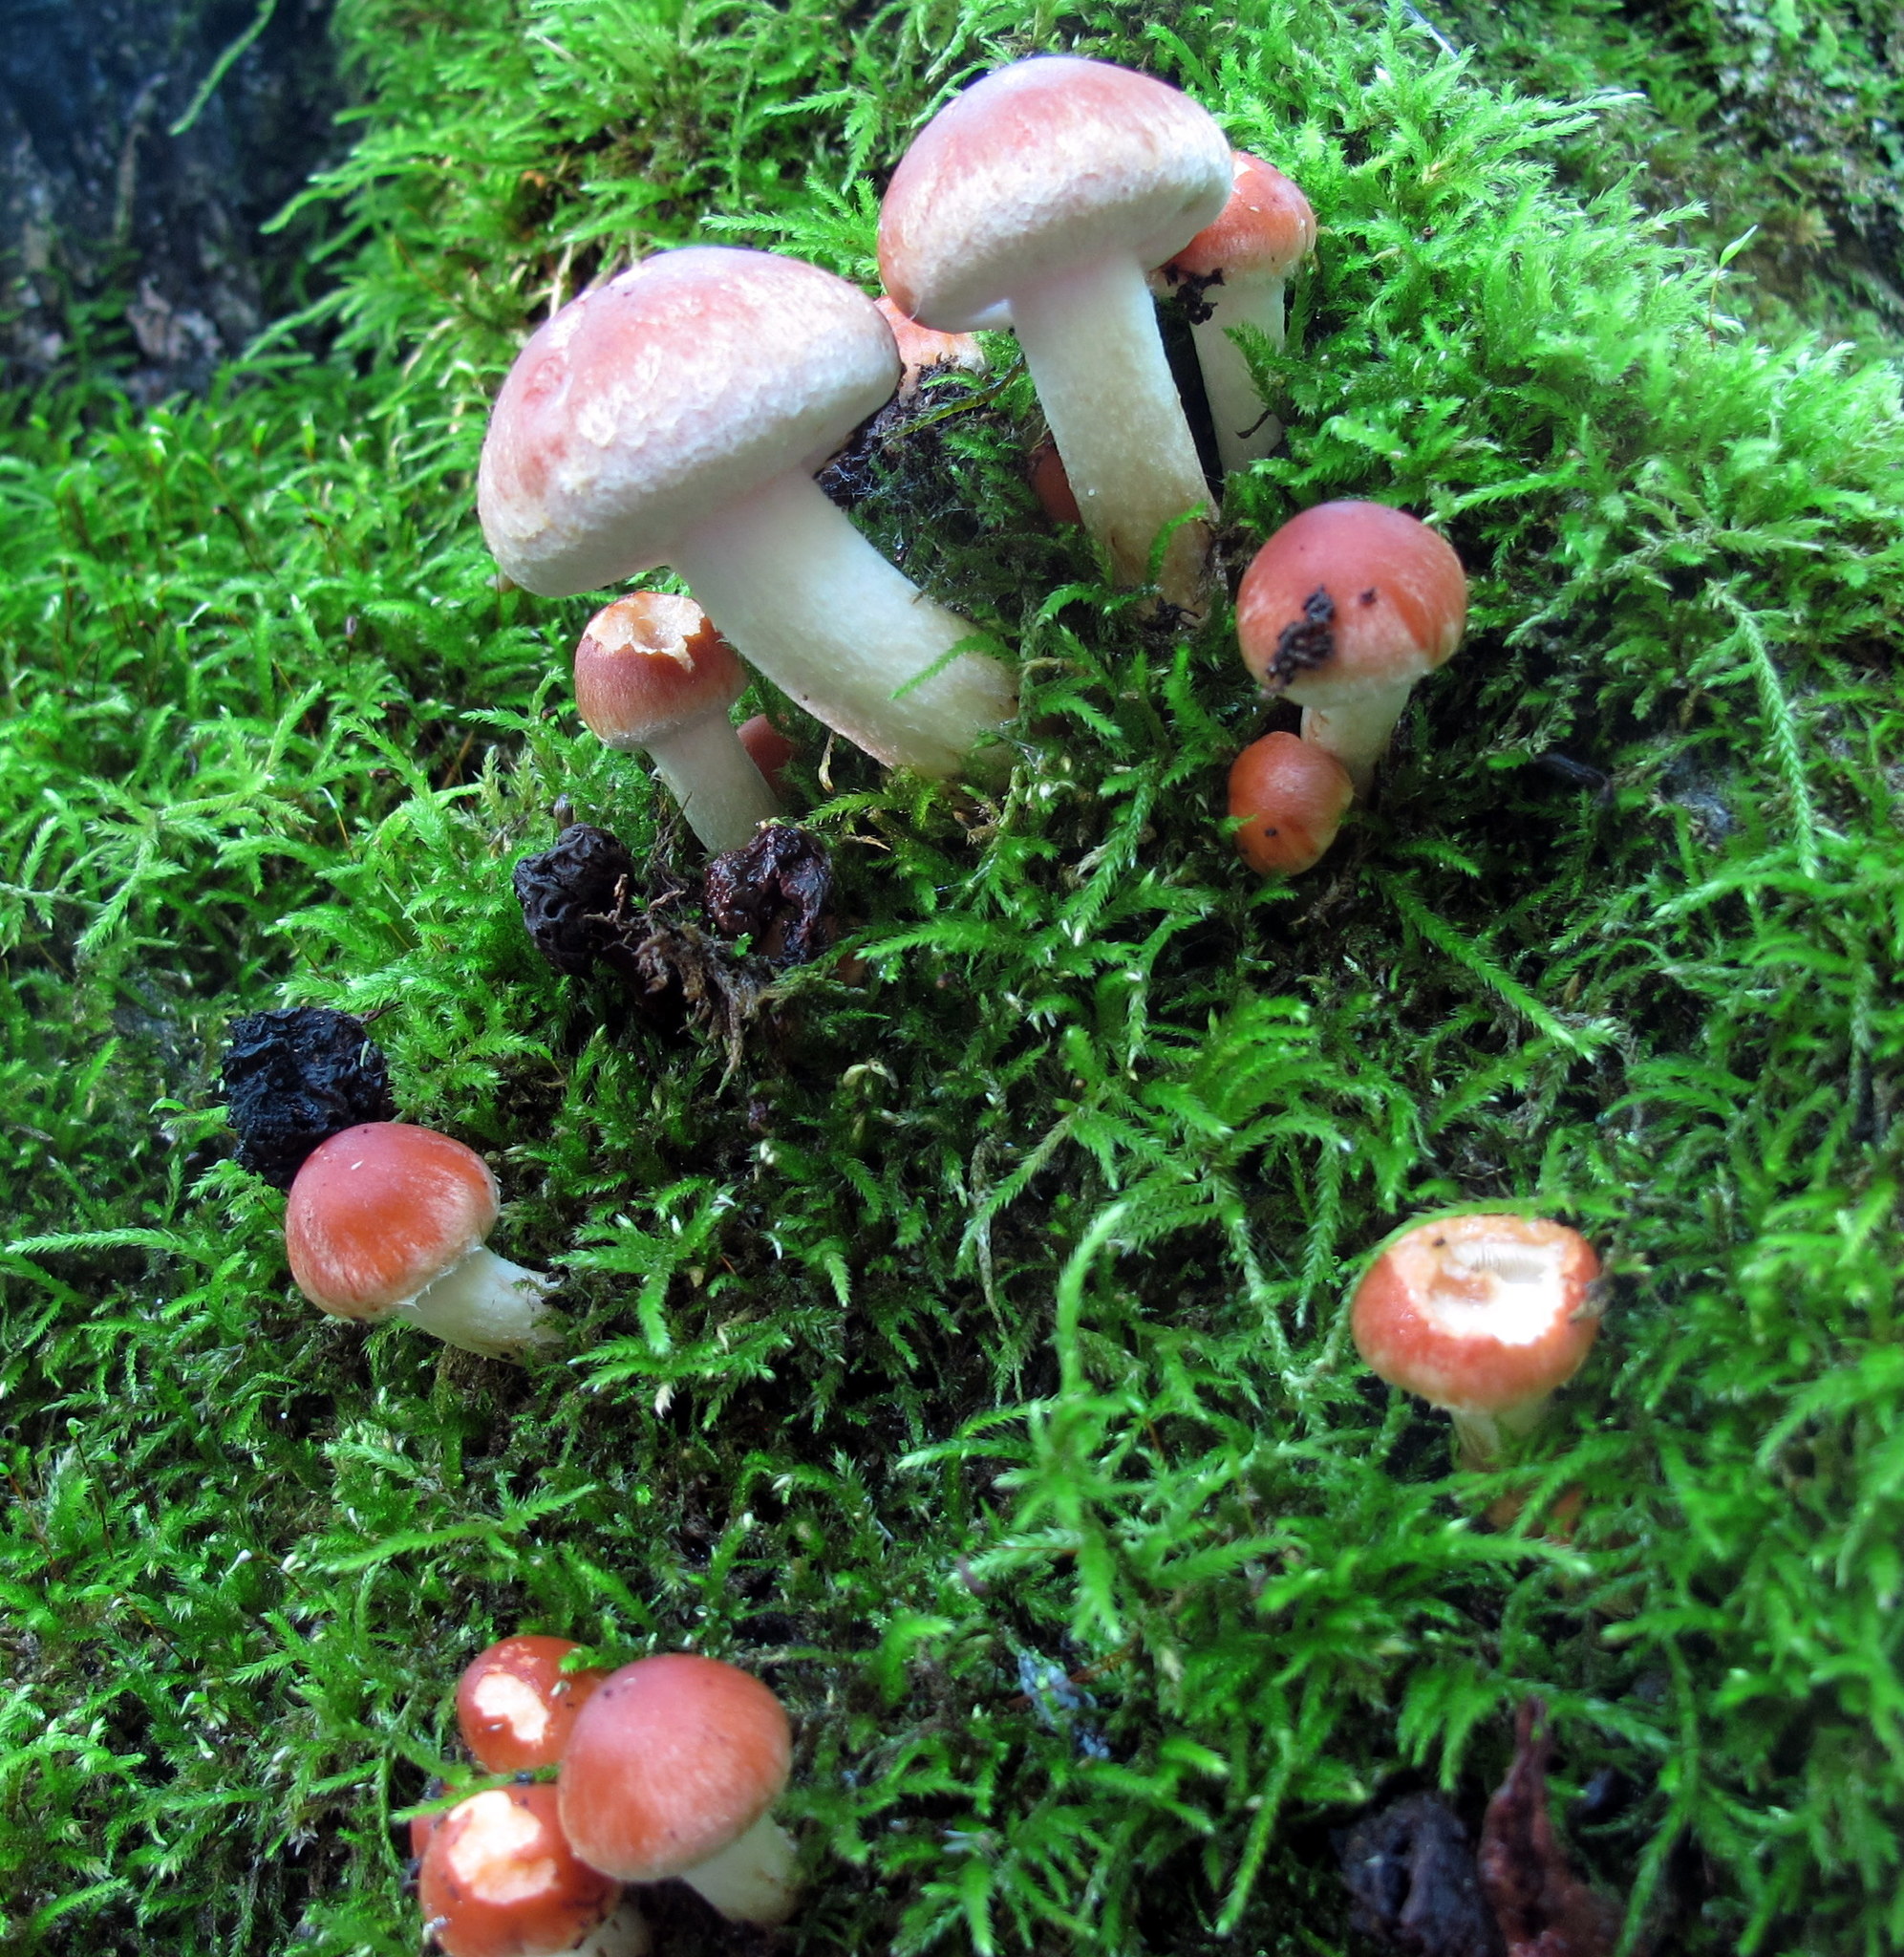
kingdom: Fungi
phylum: Ascomycota
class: Sordariomycetes
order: Hypocreales
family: Hypocreaceae
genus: Hypomyces
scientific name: Hypomyces lateritius
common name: Ochre gillgobbler
